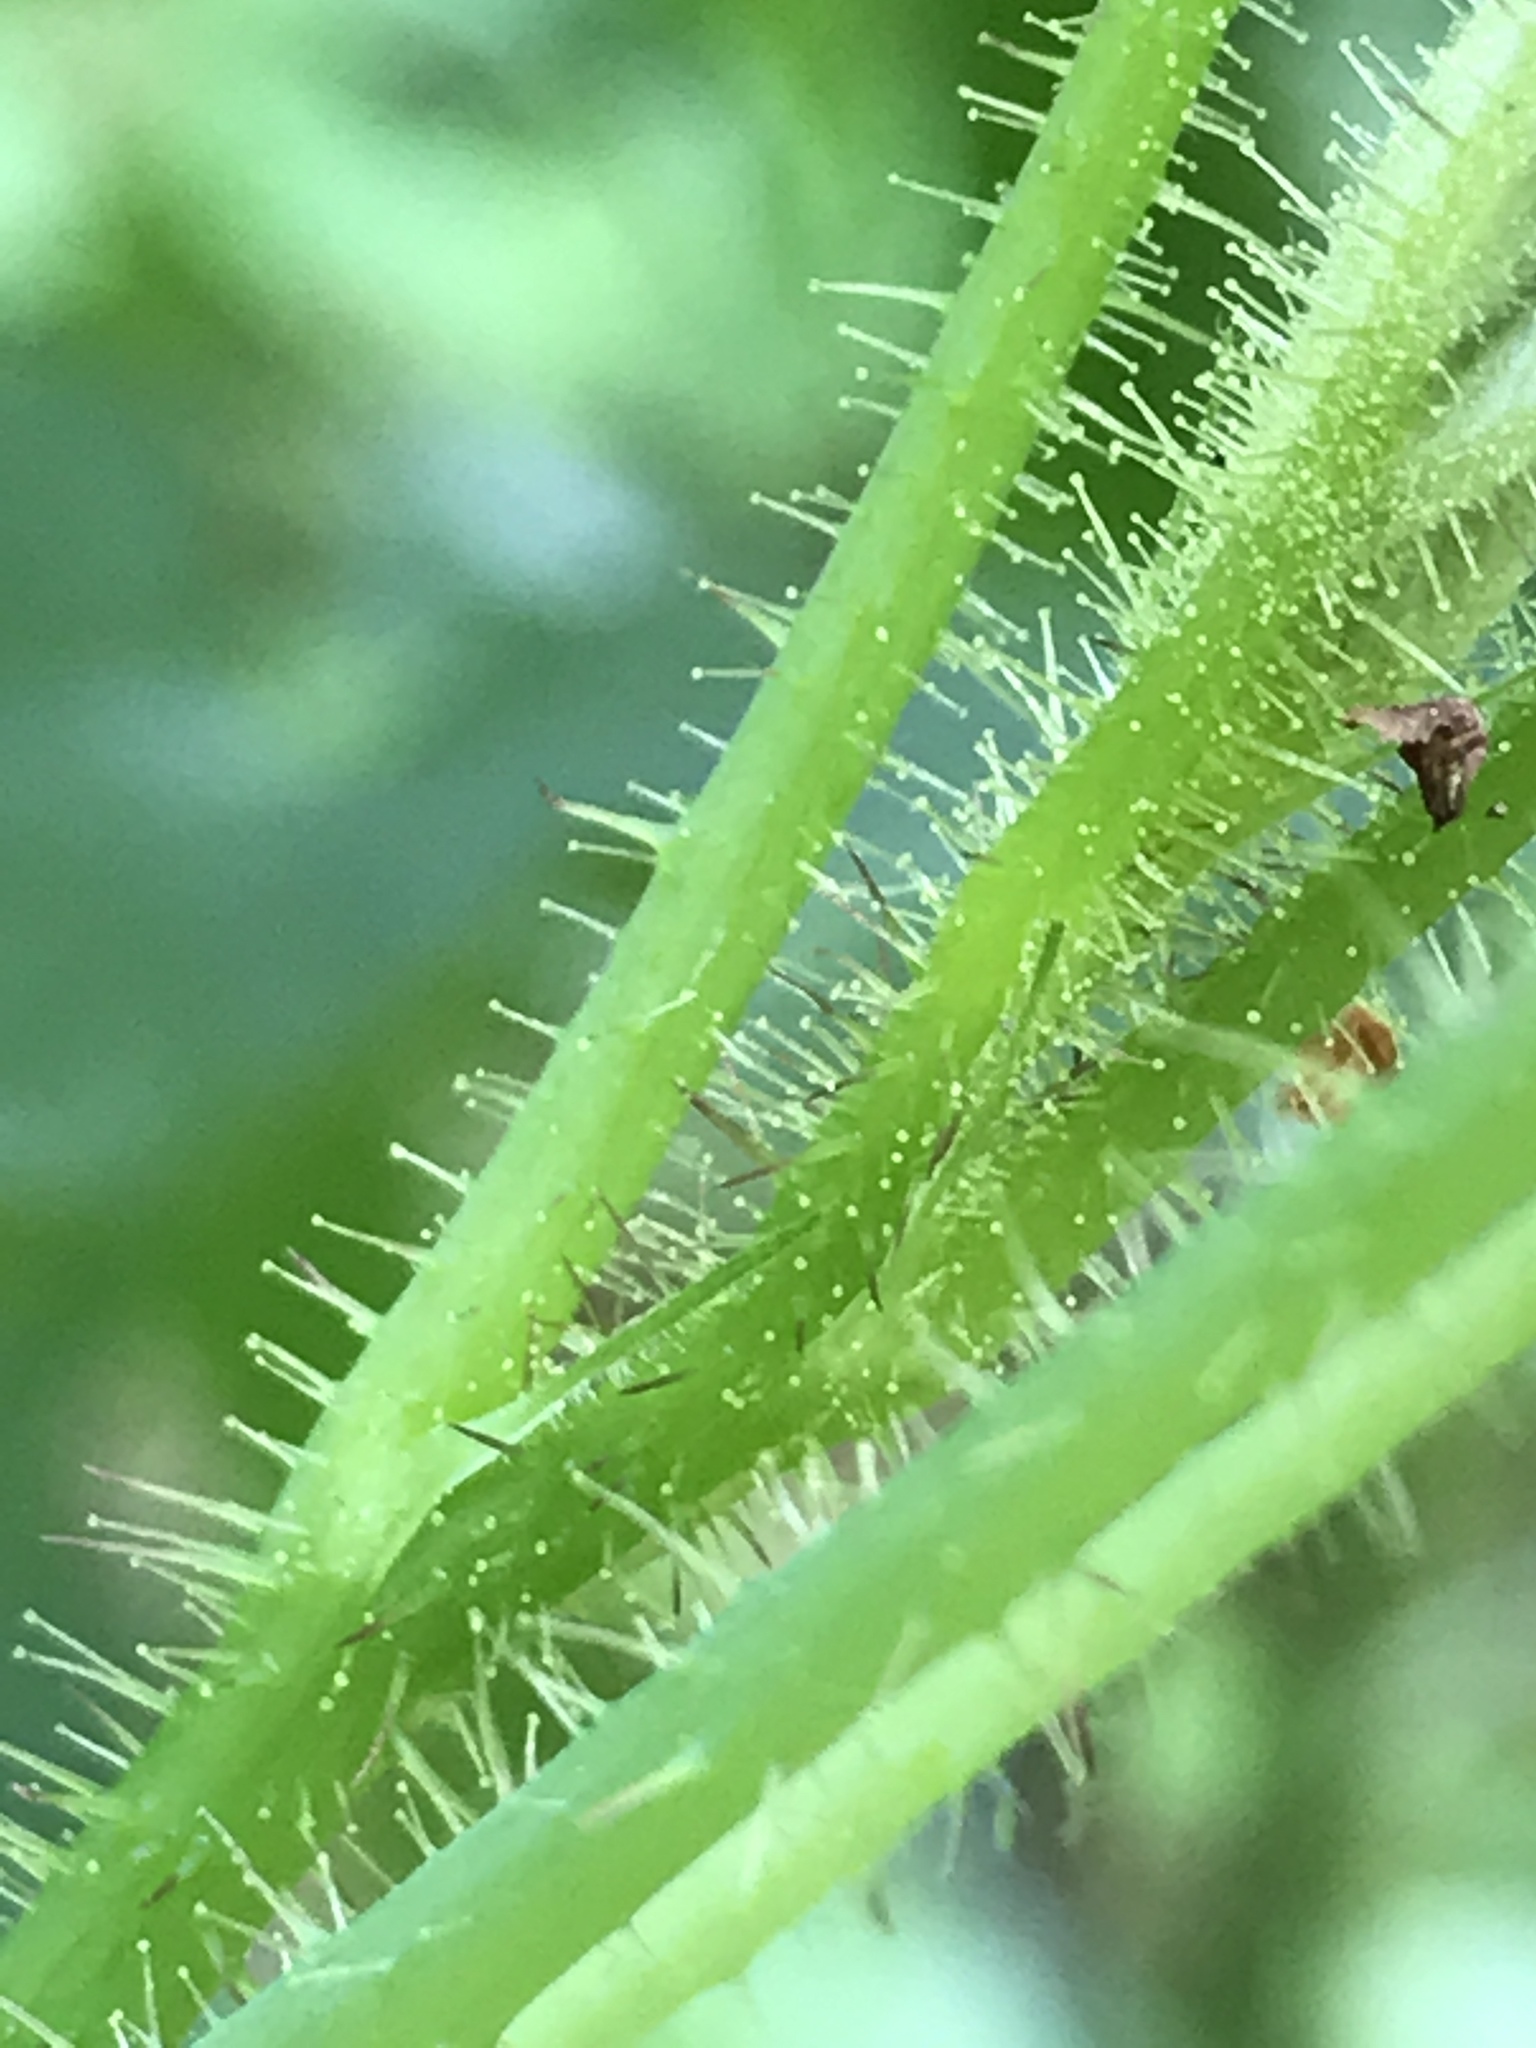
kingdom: Plantae
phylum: Tracheophyta
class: Magnoliopsida
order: Rosales
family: Rosaceae
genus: Rubus
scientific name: Rubus idaeus
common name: Raspberry
